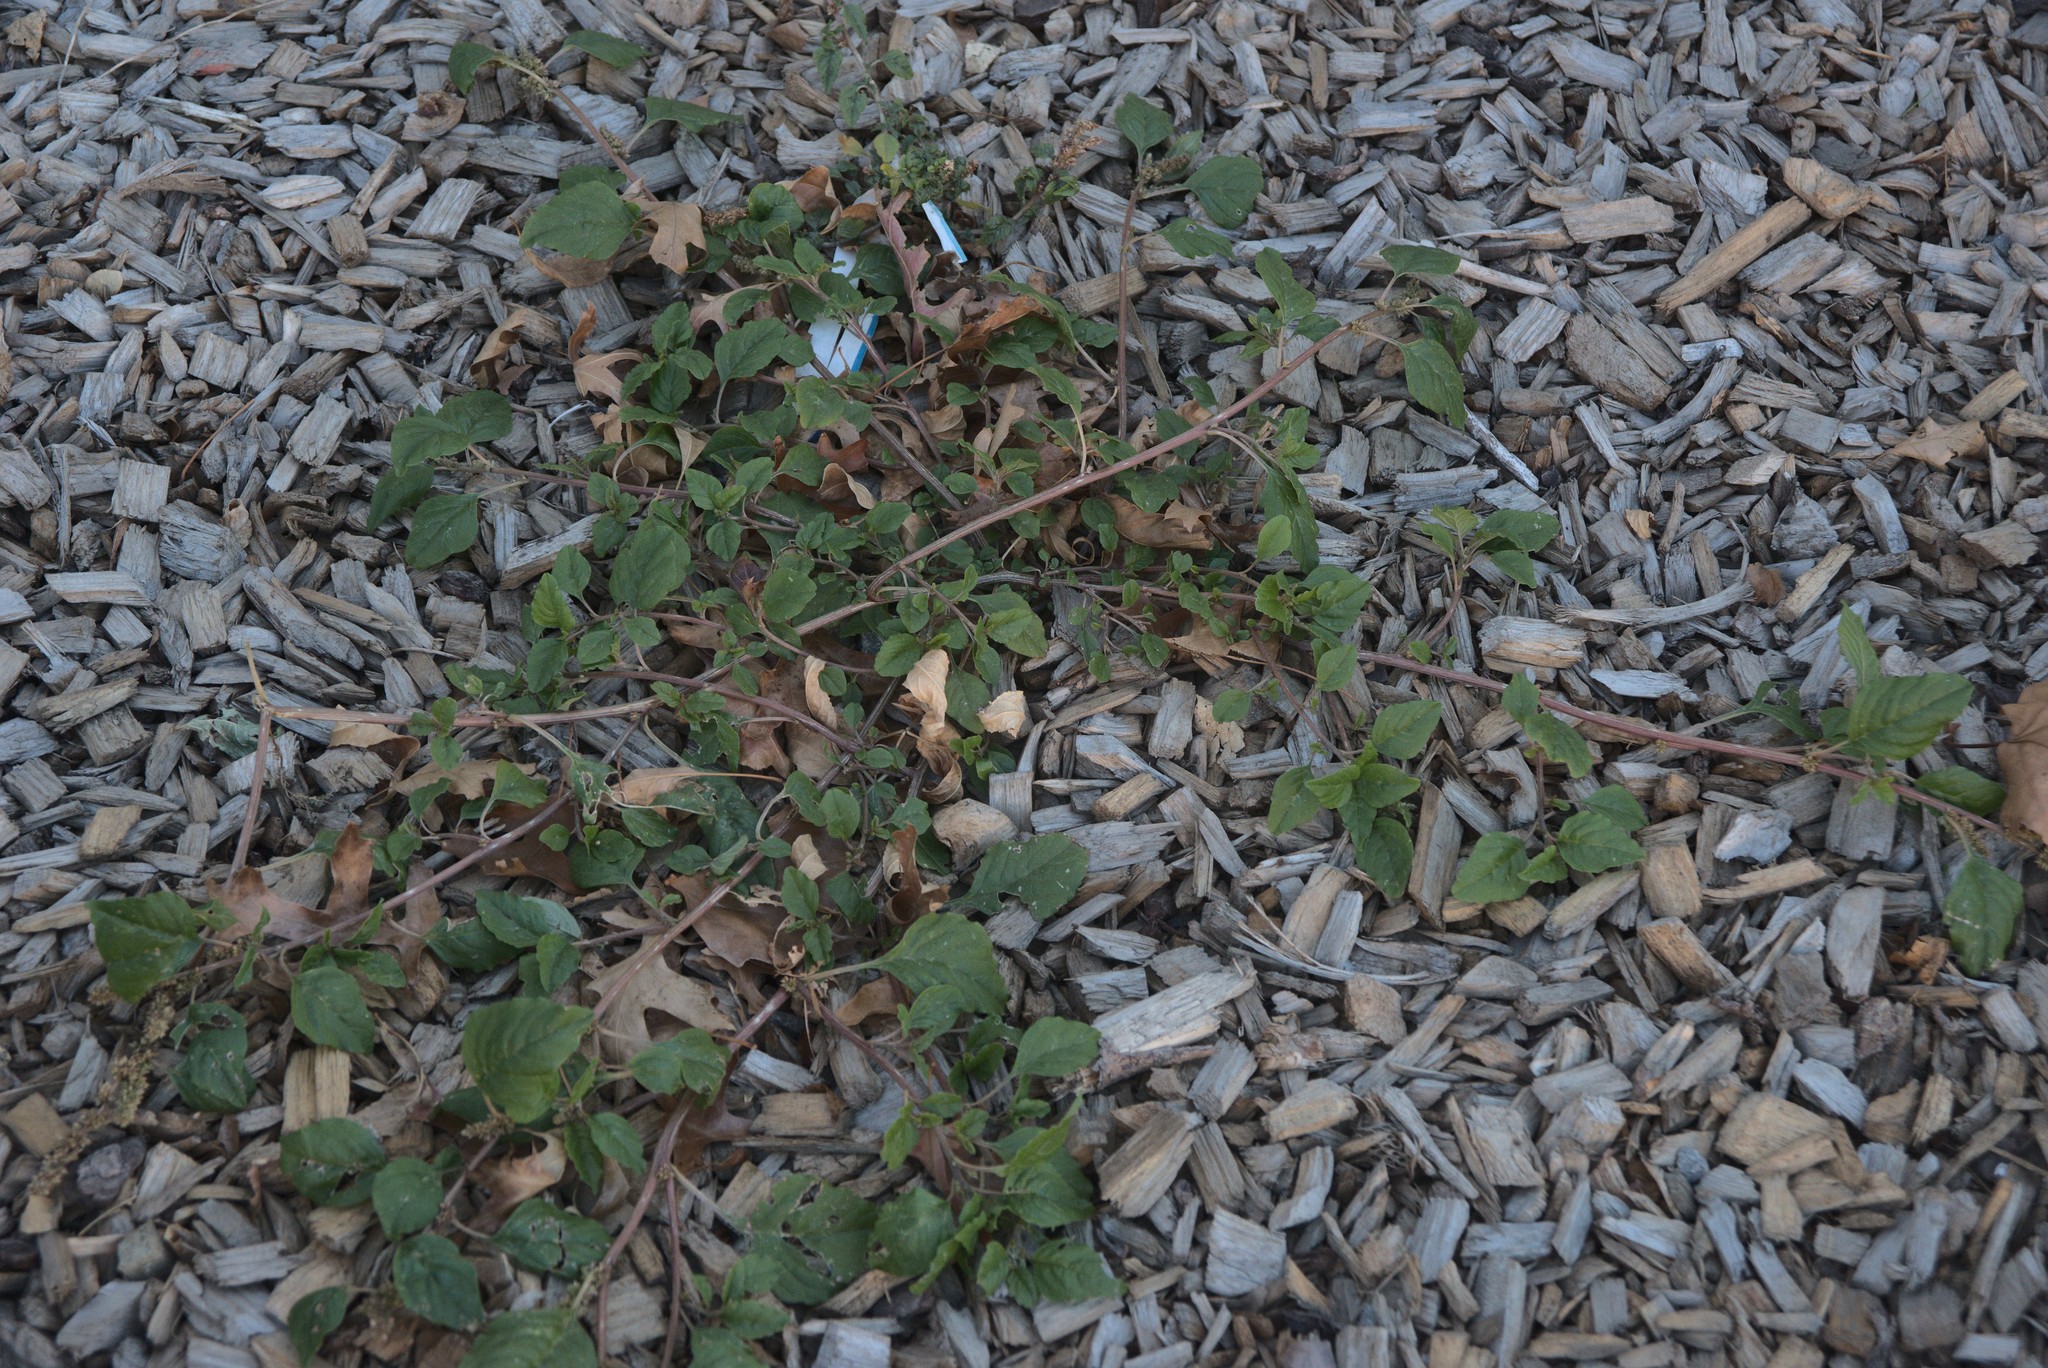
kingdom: Plantae
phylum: Tracheophyta
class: Magnoliopsida
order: Caryophyllales
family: Amaranthaceae
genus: Amaranthus
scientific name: Amaranthus deflexus
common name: Perennial pigweed
